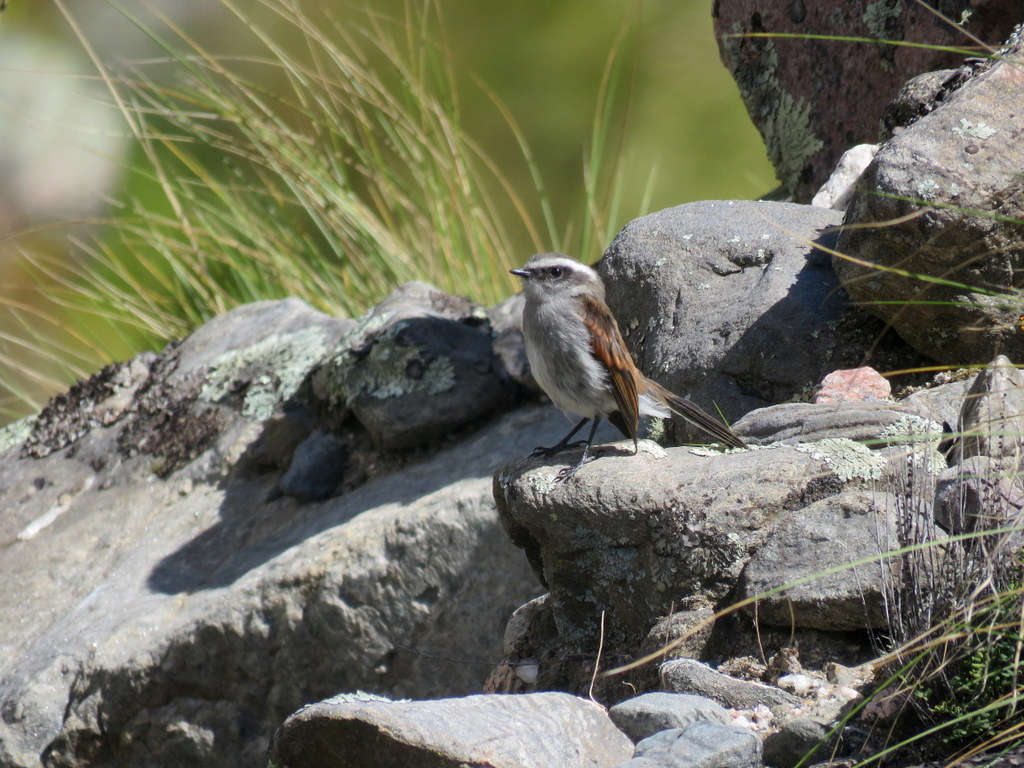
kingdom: Animalia
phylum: Chordata
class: Aves
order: Passeriformes
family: Tyrannidae
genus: Ochthoeca
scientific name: Ochthoeca leucophrys
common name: White-browed chat-tyrant
